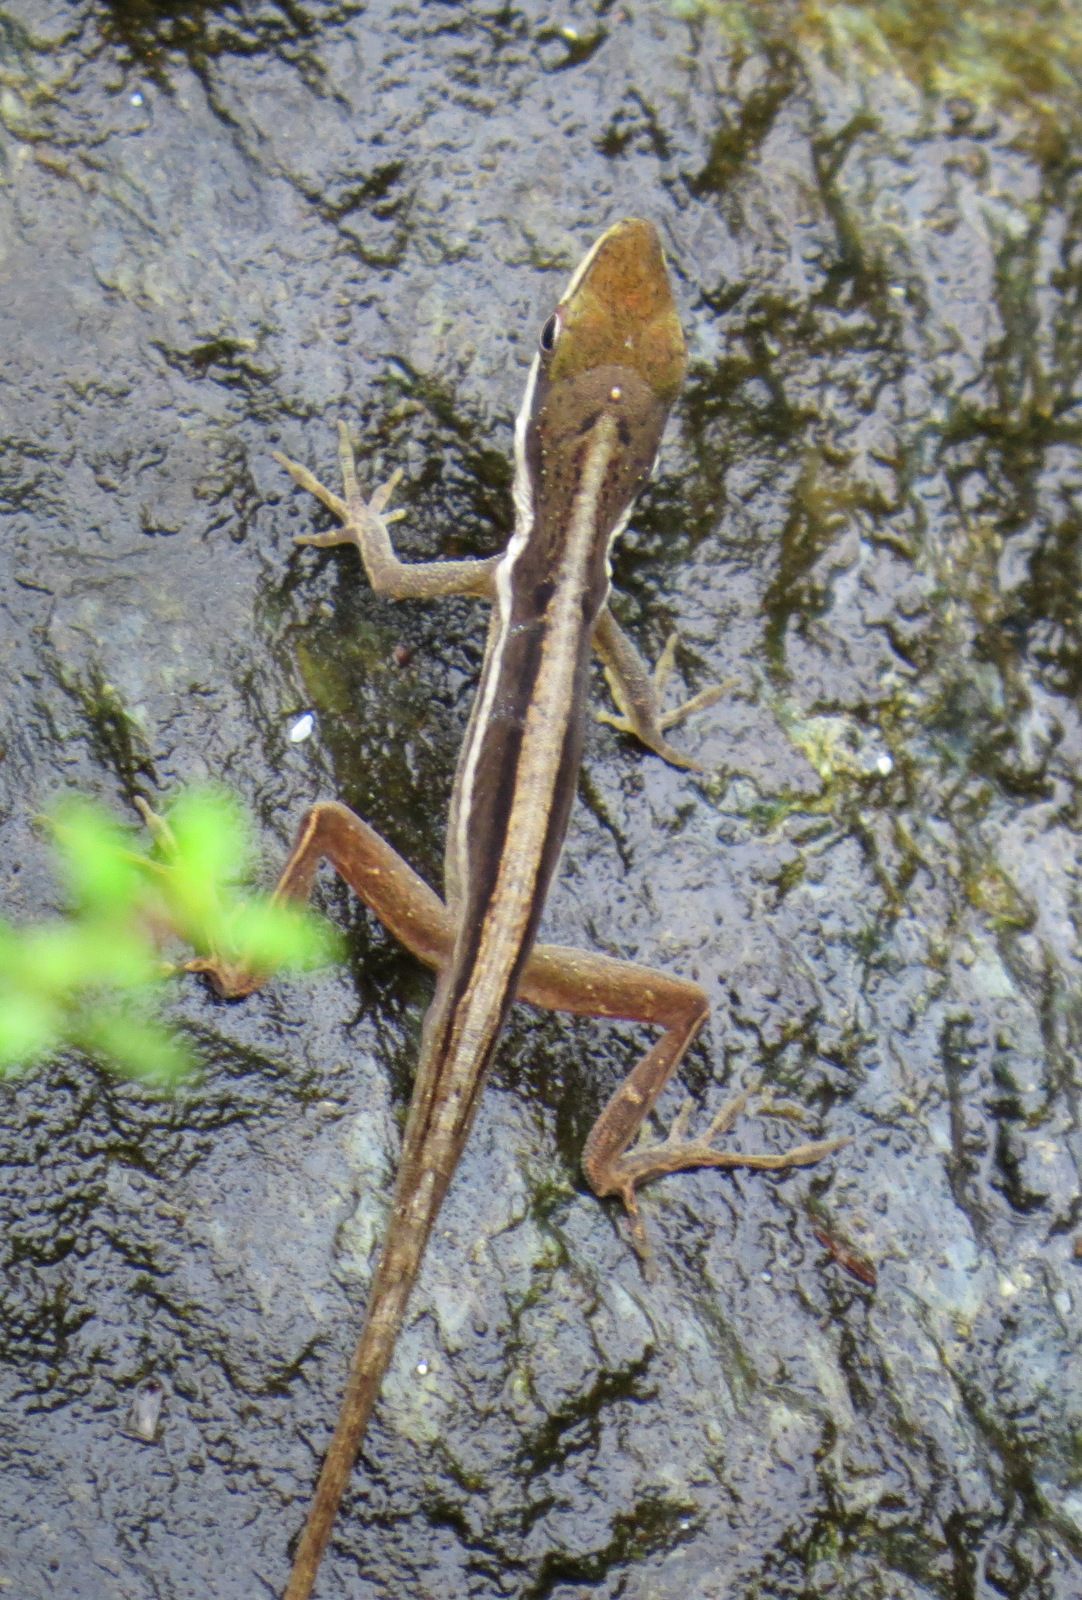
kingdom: Animalia
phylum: Chordata
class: Squamata
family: Dactyloidae
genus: Anolis
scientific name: Anolis krugi
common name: Krug's anole
